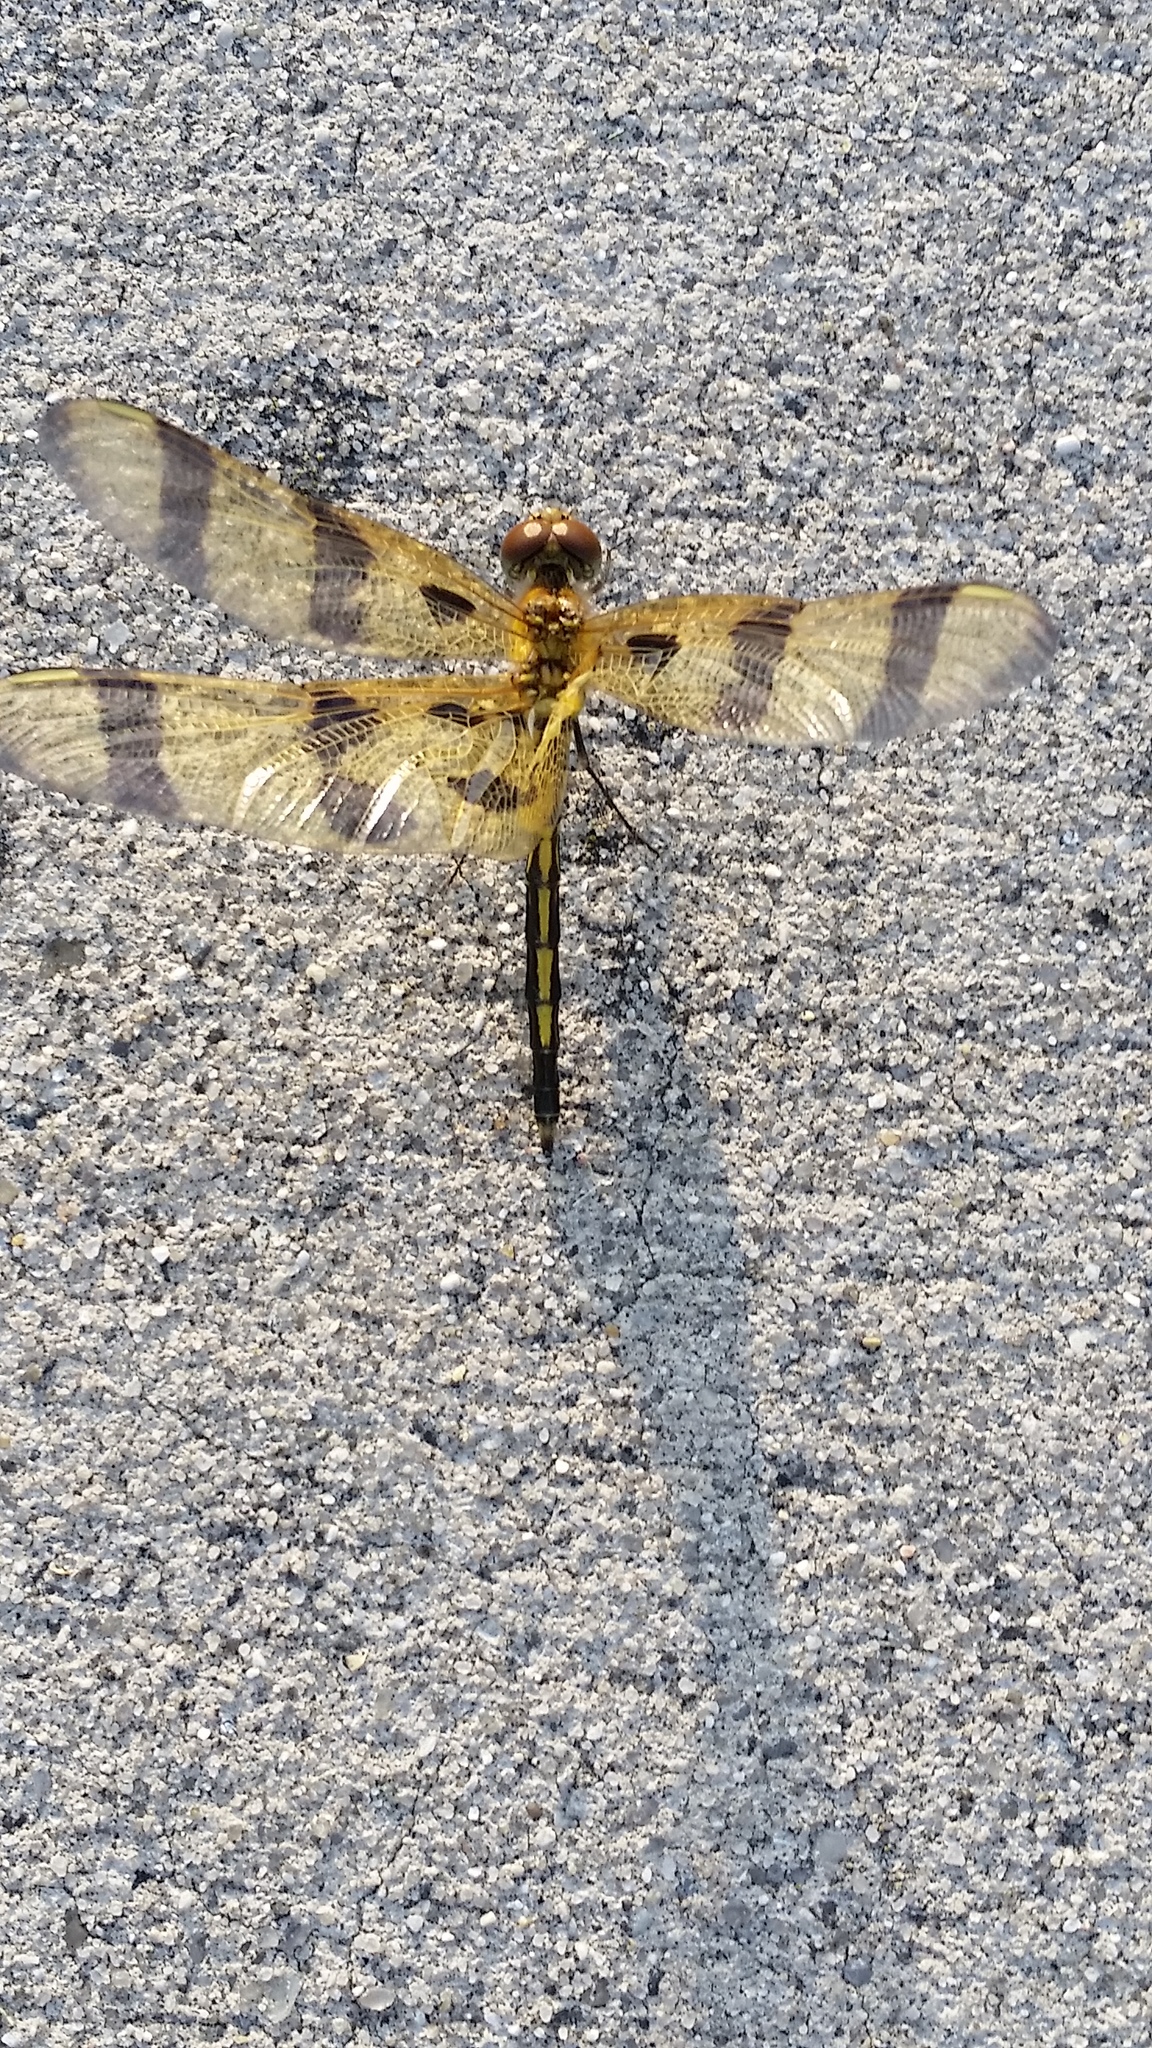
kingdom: Animalia
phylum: Arthropoda
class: Insecta
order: Odonata
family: Libellulidae
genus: Celithemis
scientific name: Celithemis eponina
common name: Halloween pennant
